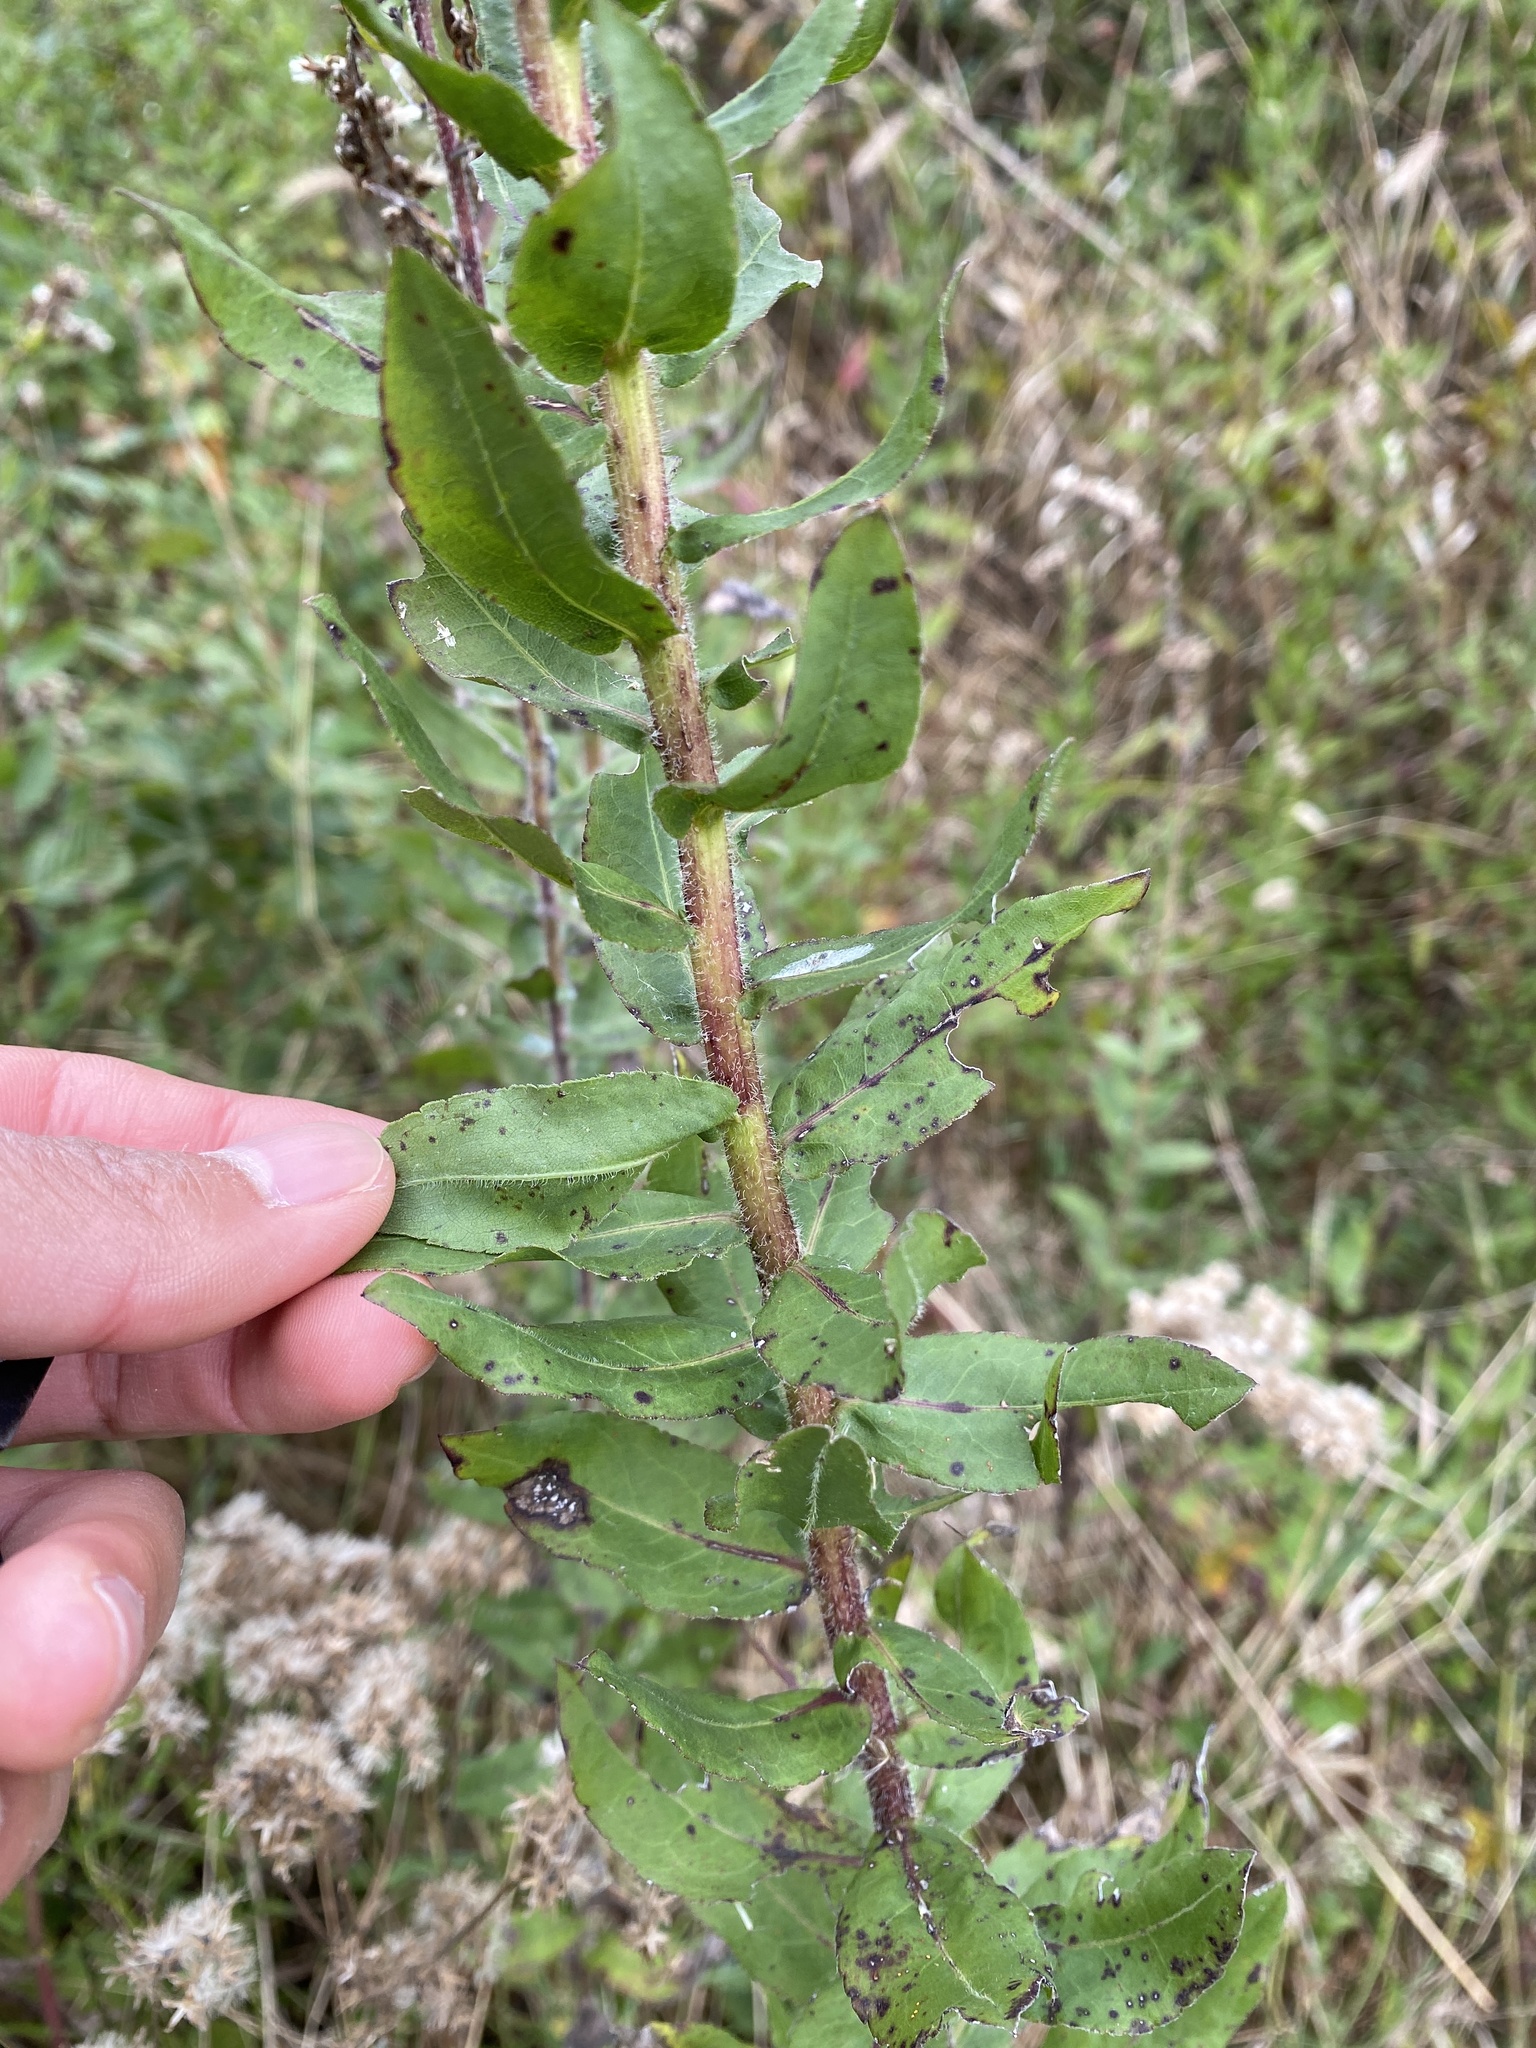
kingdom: Plantae
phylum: Tracheophyta
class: Magnoliopsida
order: Asterales
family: Asteraceae
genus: Solidago
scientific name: Solidago fistulosa
